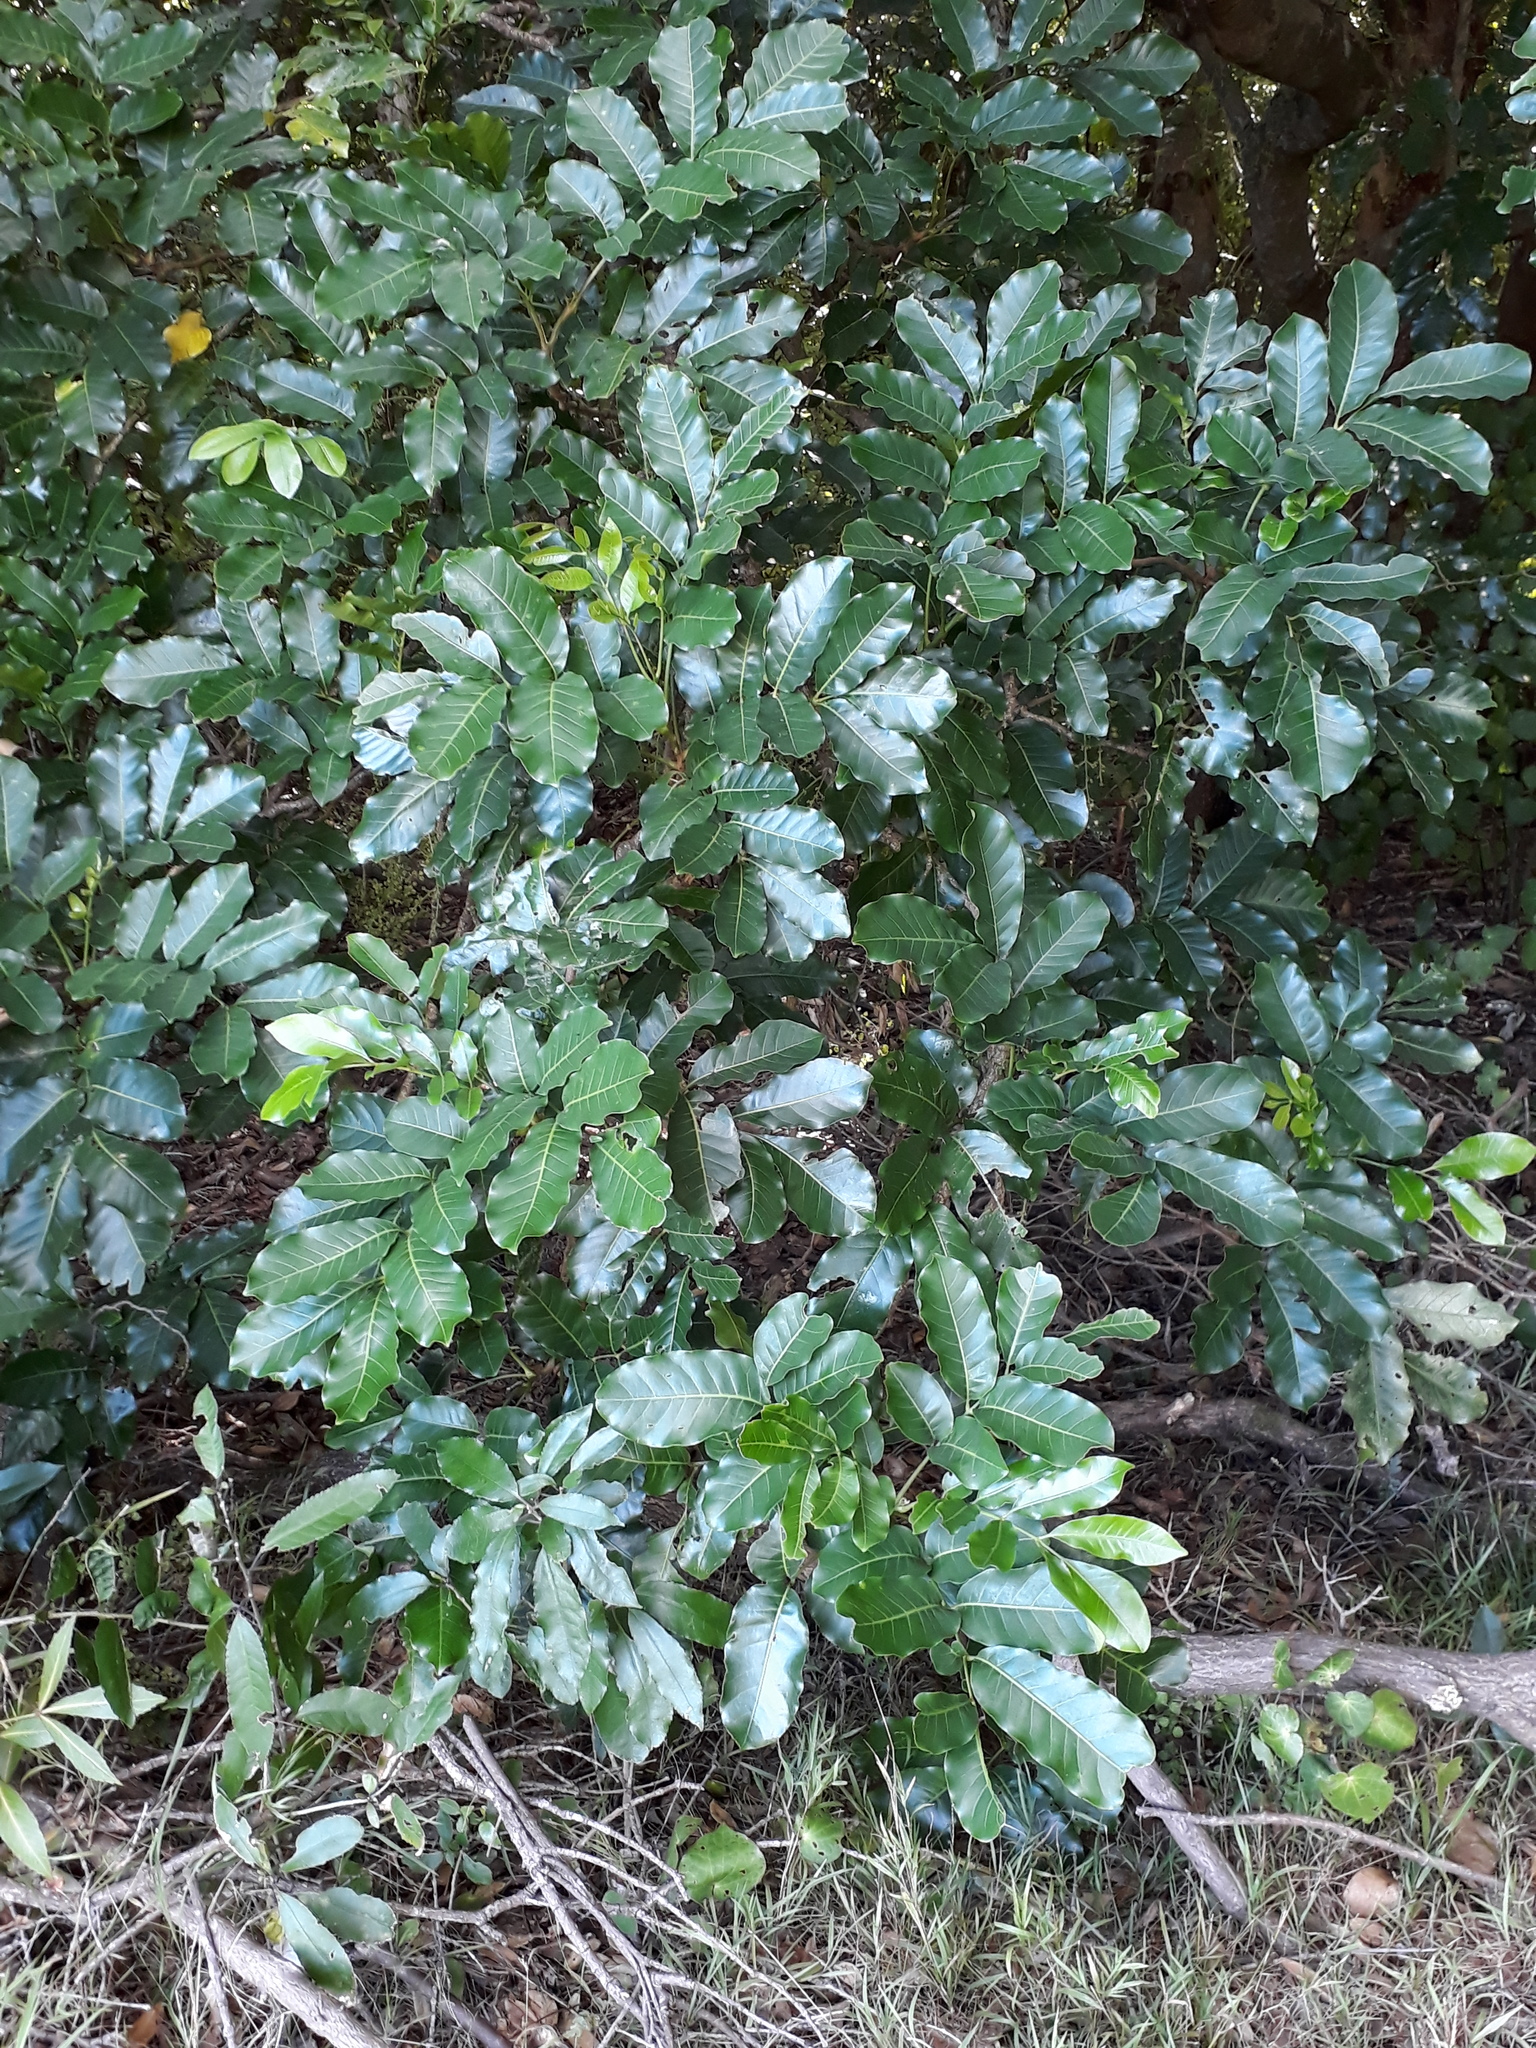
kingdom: Plantae
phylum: Tracheophyta
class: Magnoliopsida
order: Sapindales
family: Meliaceae
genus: Didymocheton
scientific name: Didymocheton spectabilis
